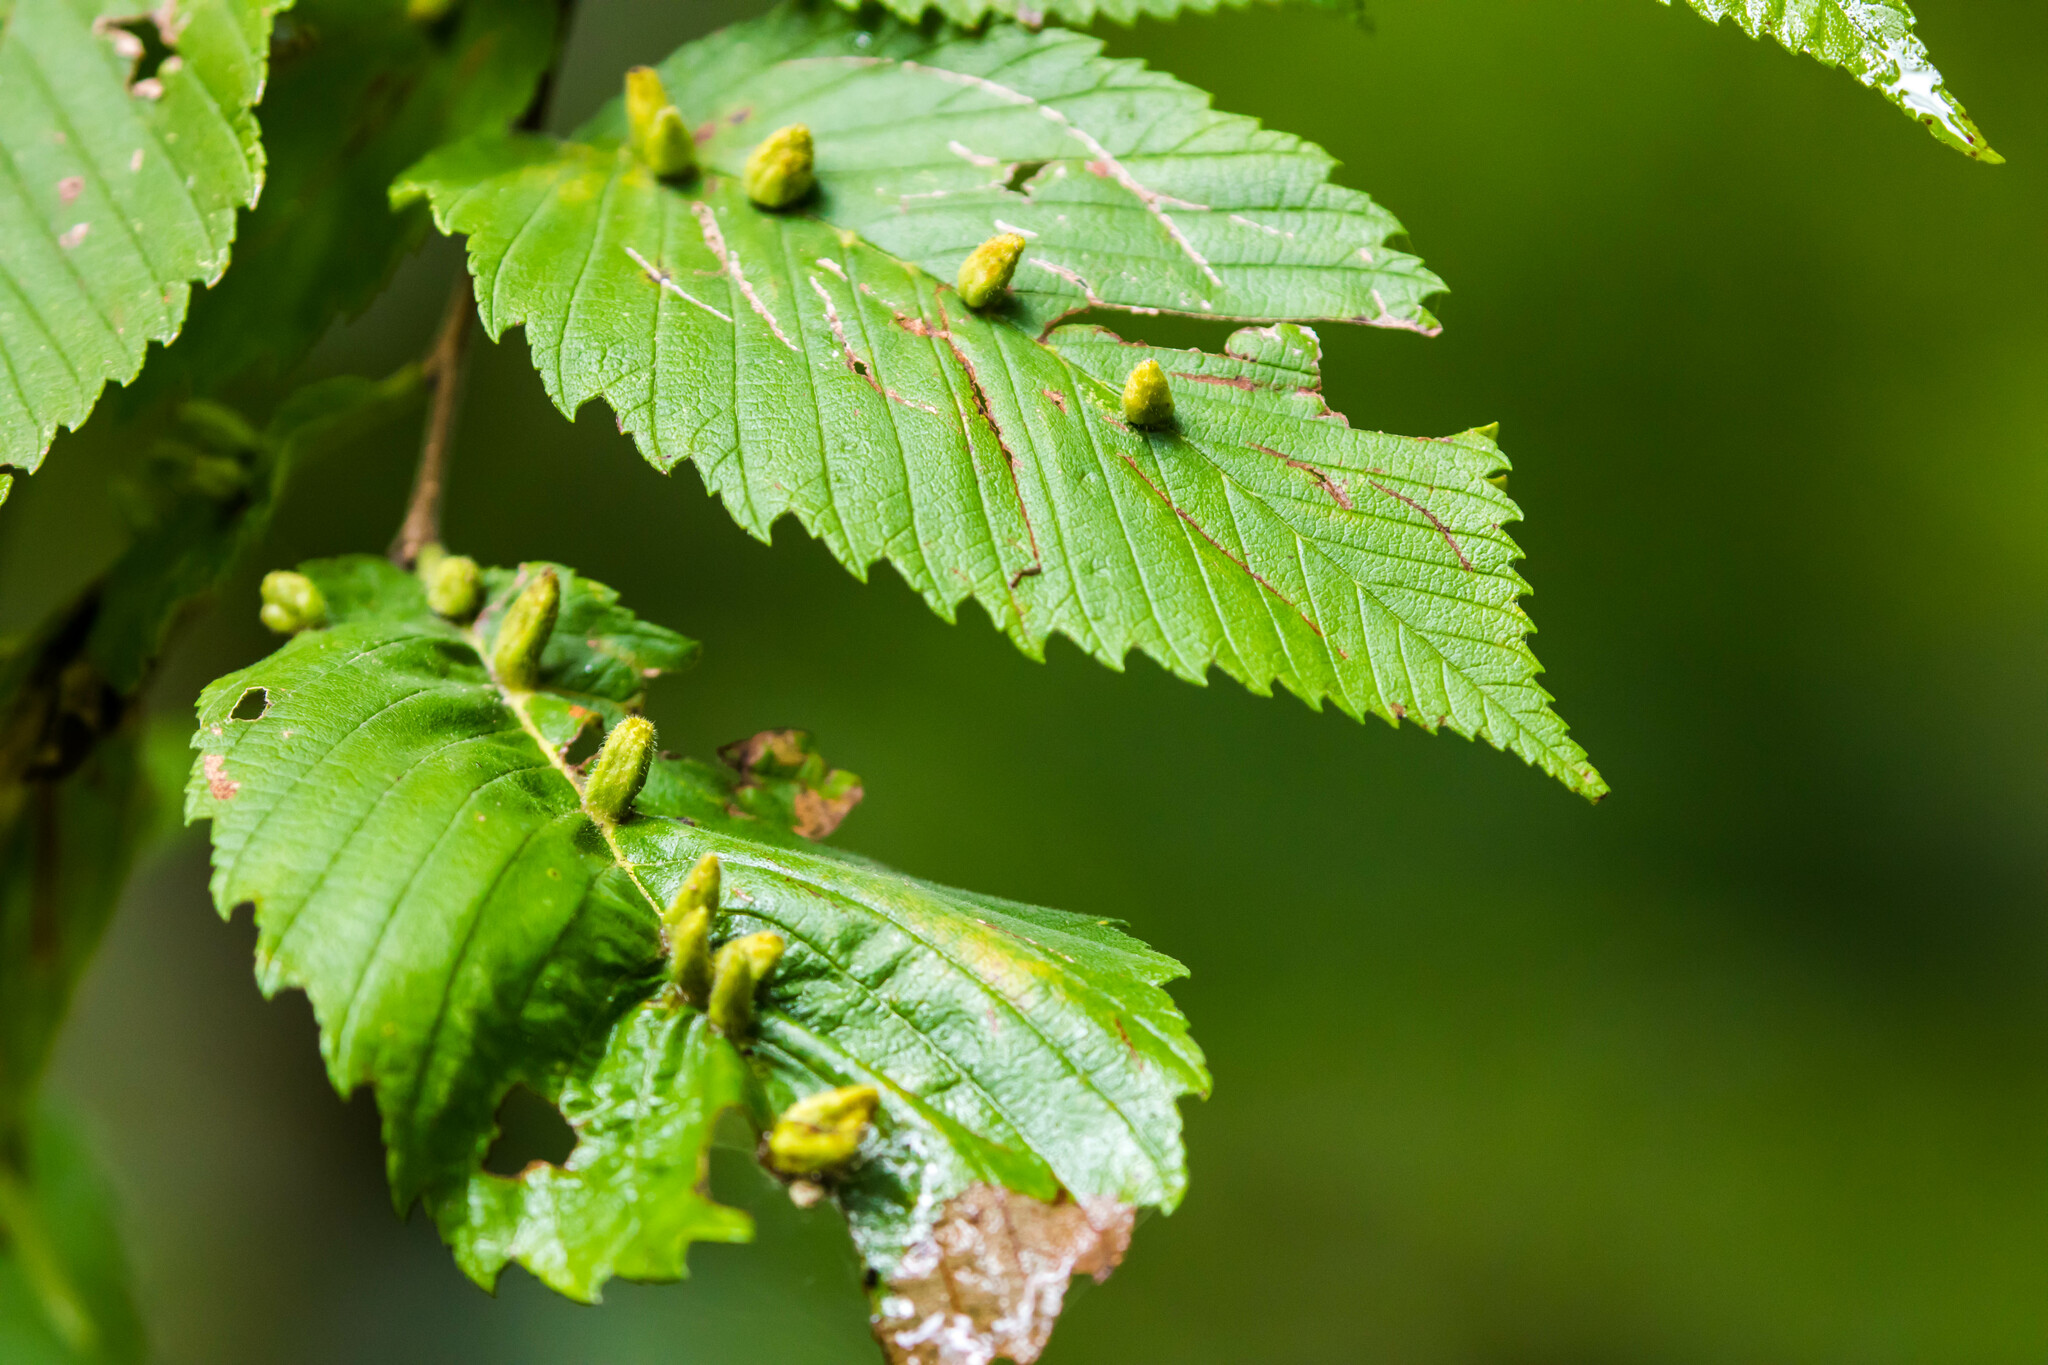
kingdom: Animalia
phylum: Arthropoda
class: Arachnida
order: Trombidiformes
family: Eriophyidae
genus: Aceria
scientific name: Aceria
